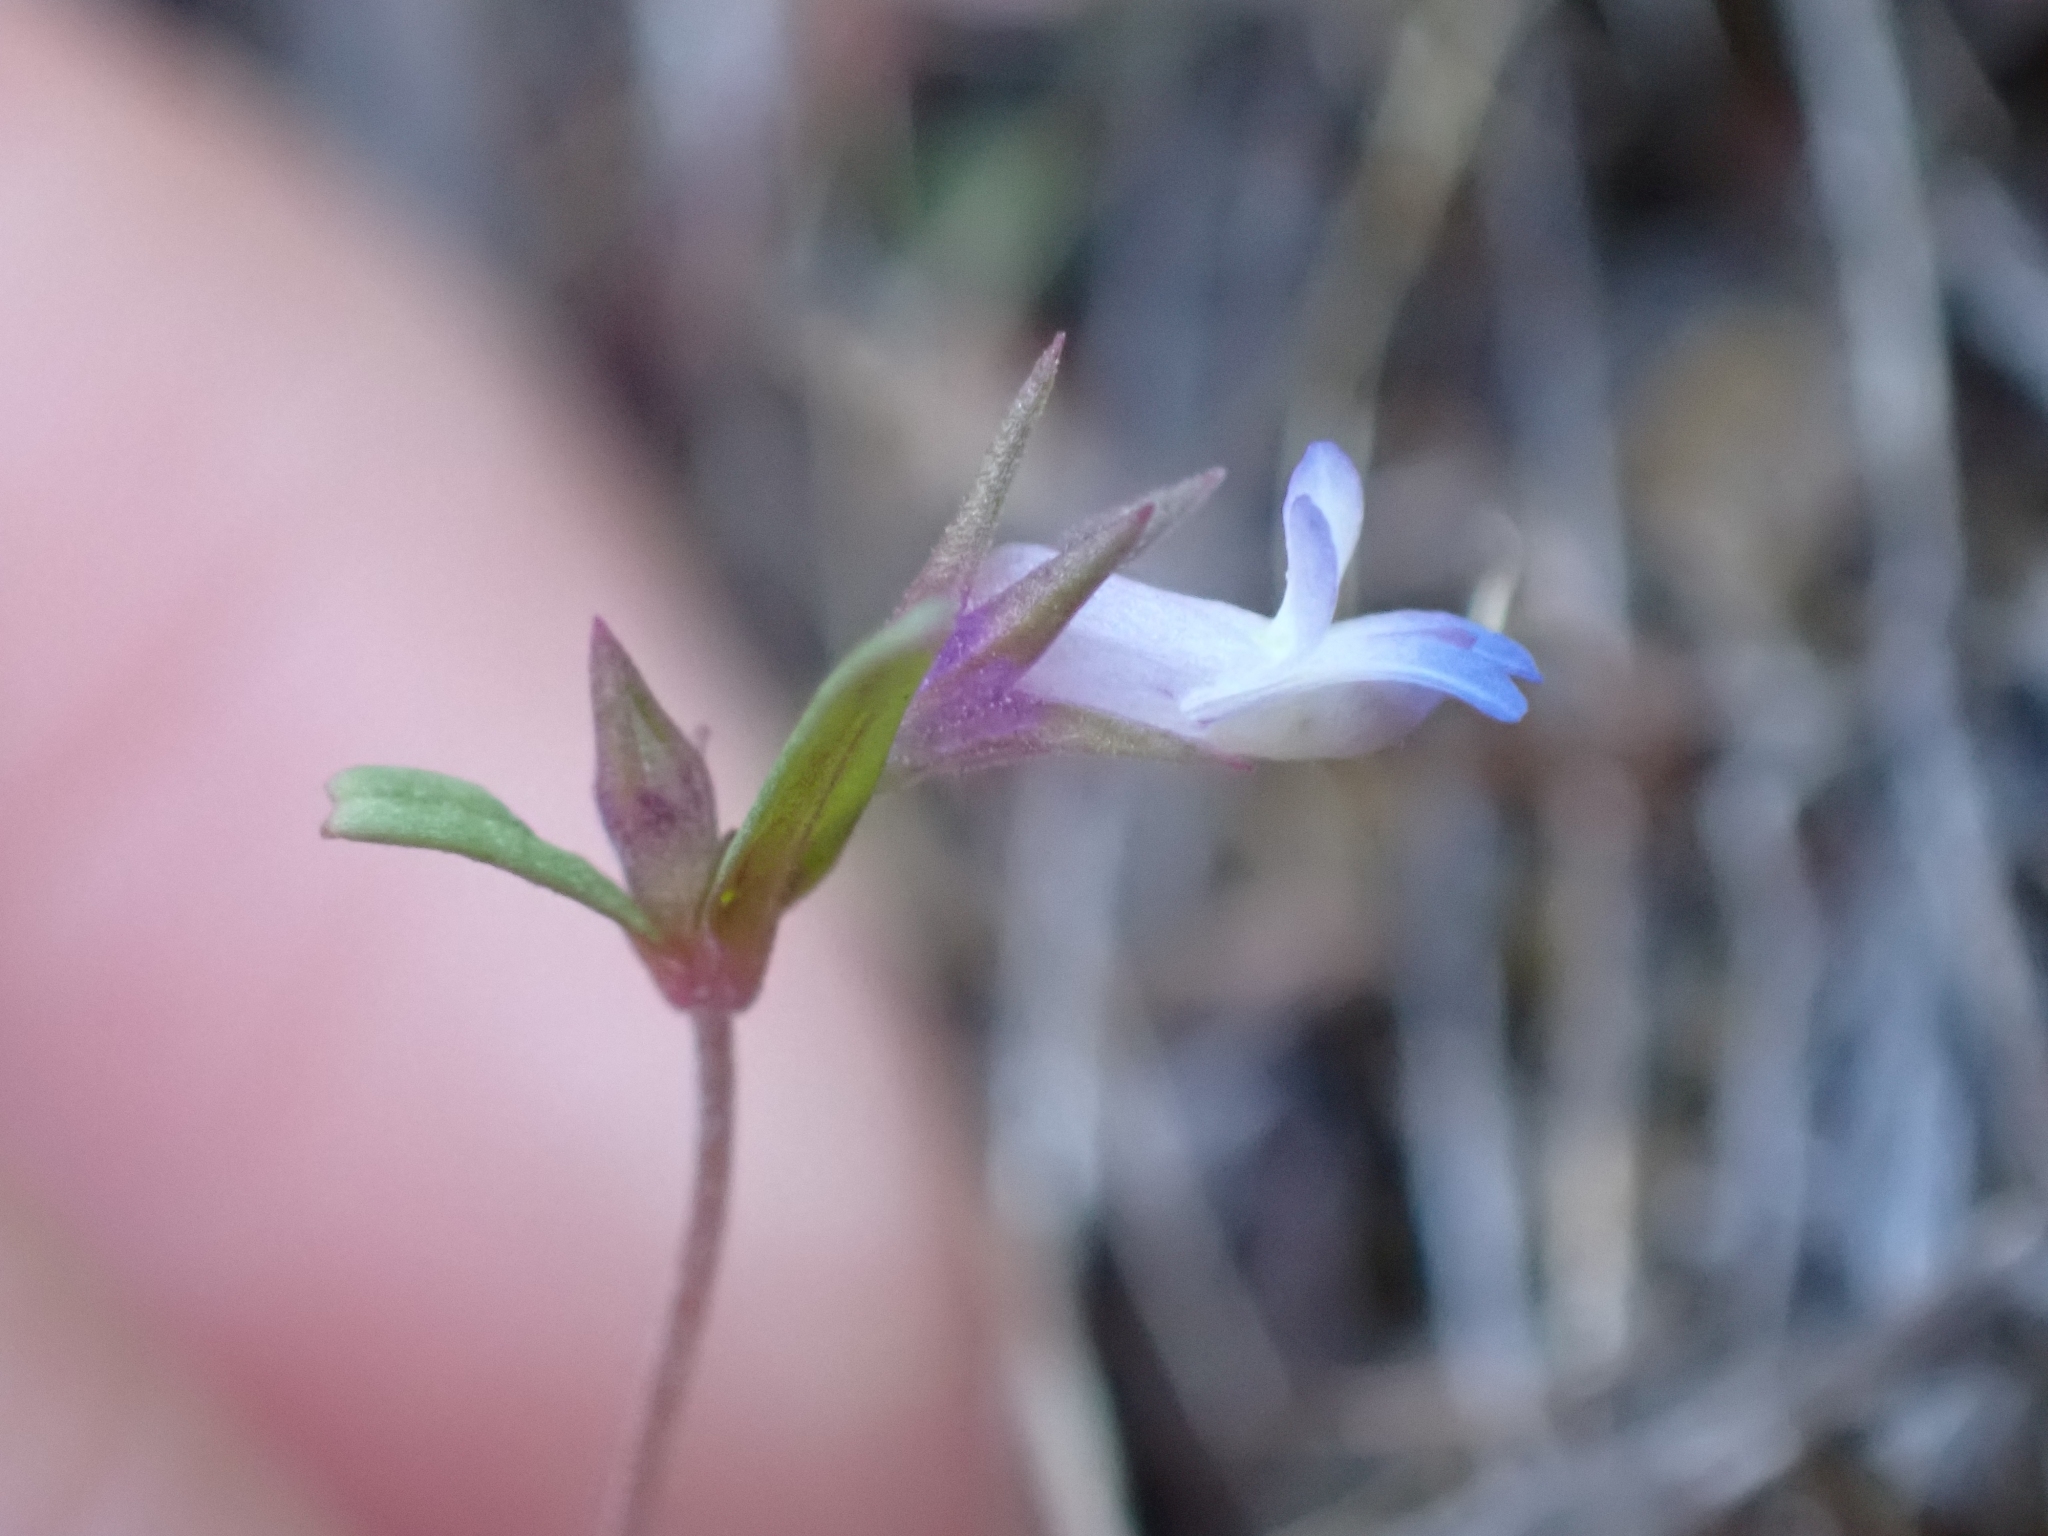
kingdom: Plantae
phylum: Tracheophyta
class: Magnoliopsida
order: Lamiales
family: Plantaginaceae
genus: Collinsia
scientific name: Collinsia parviflora
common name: Blue-lips
